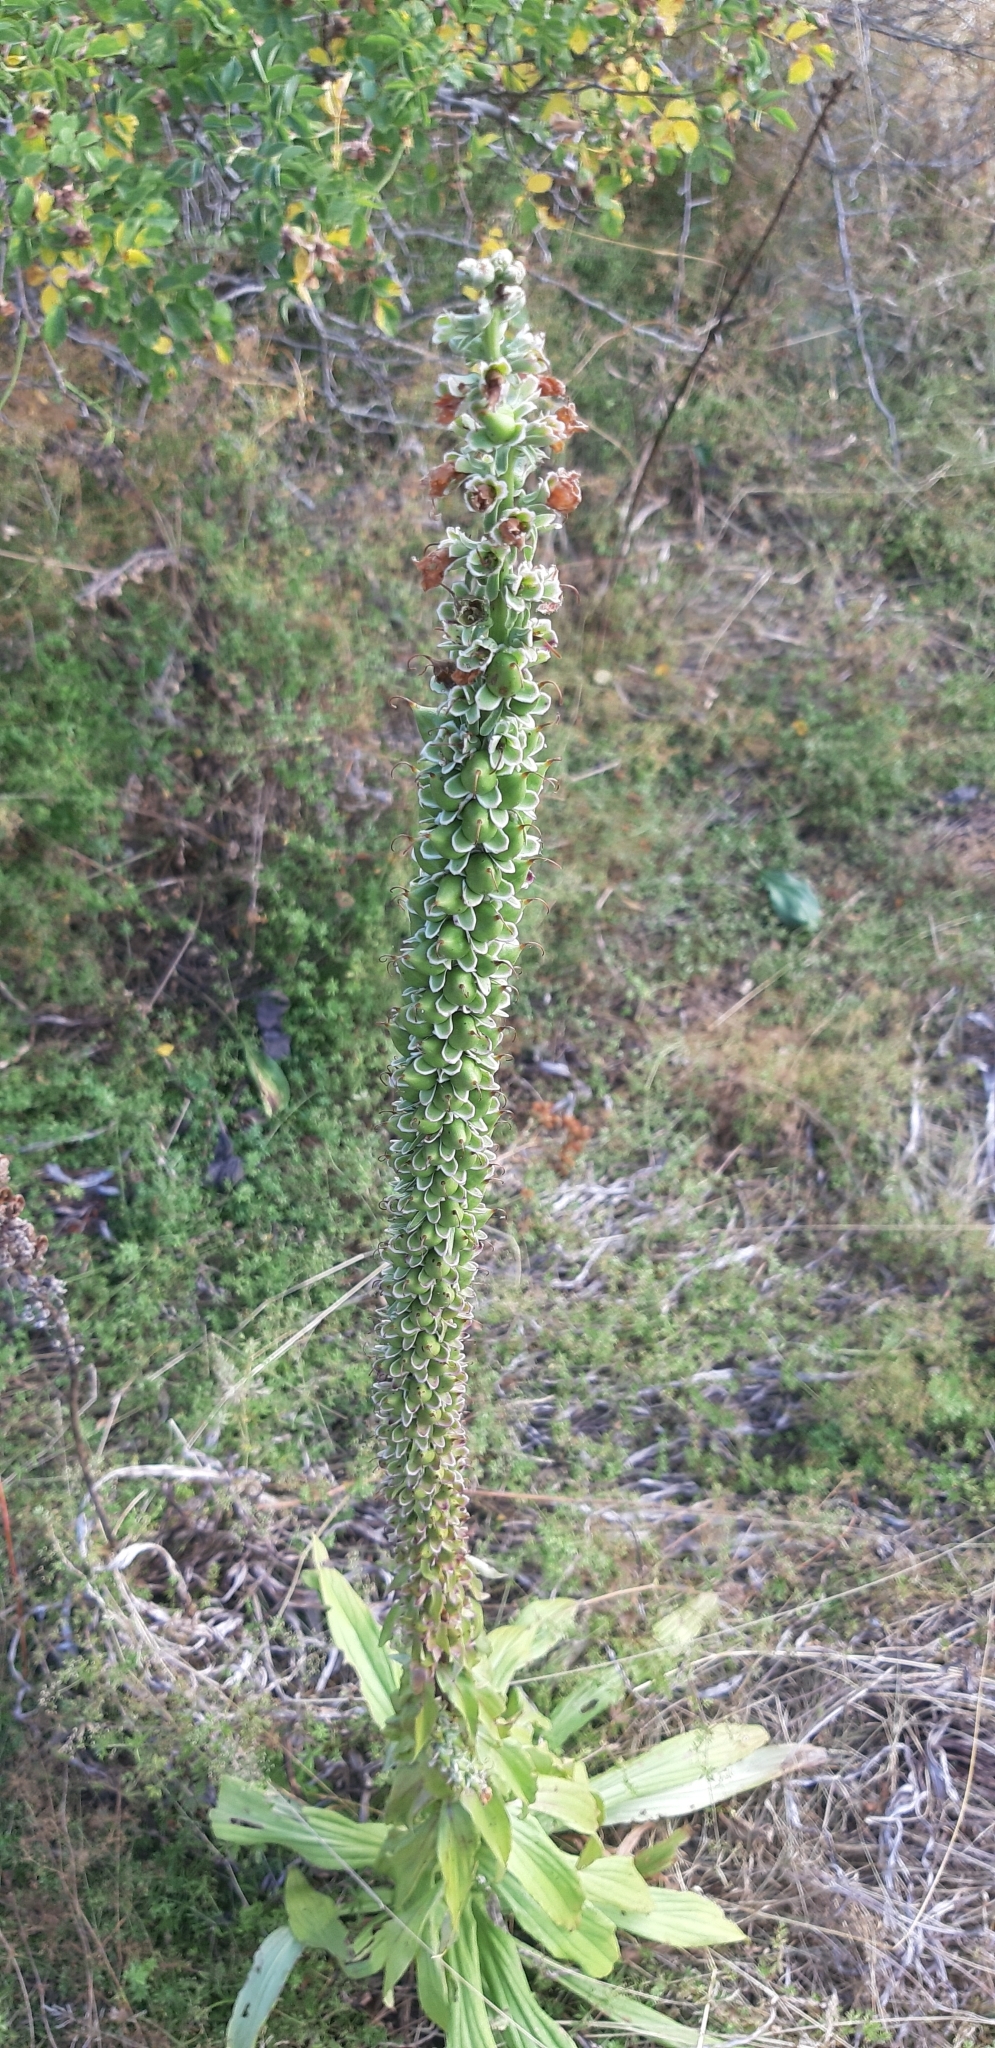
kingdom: Plantae
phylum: Tracheophyta
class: Magnoliopsida
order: Lamiales
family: Plantaginaceae
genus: Digitalis
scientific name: Digitalis ferruginea
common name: Rusty foxglove
